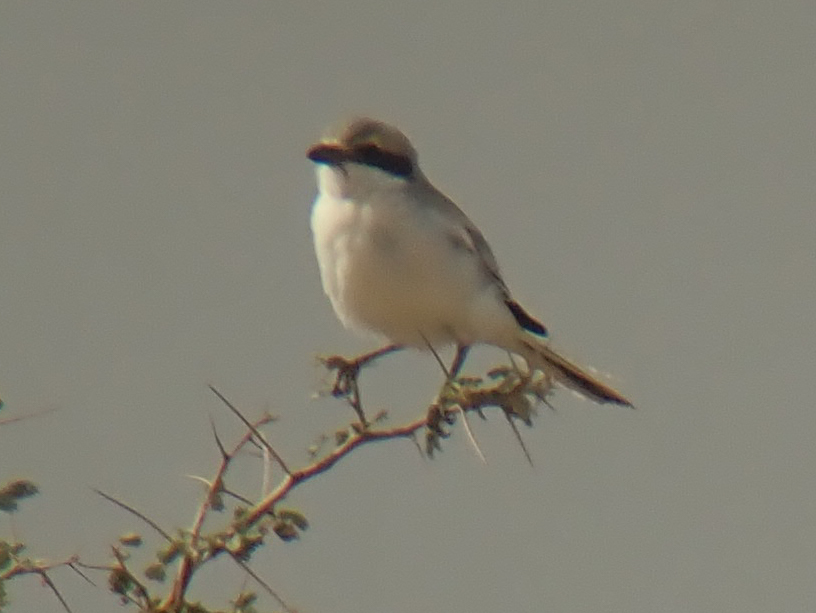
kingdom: Animalia
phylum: Chordata
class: Aves
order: Passeriformes
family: Laniidae
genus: Lanius
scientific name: Lanius excubitor
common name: Great grey shrike
